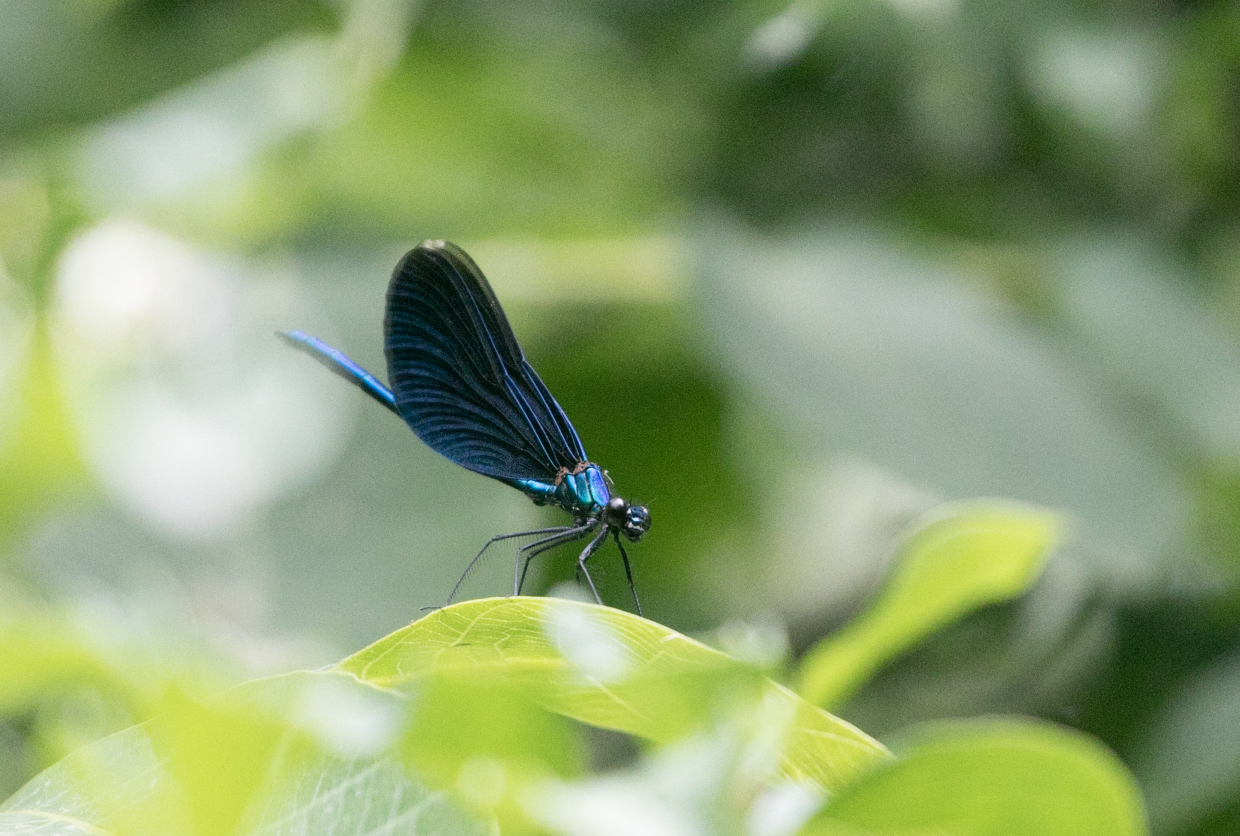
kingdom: Animalia
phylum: Arthropoda
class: Insecta
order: Odonata
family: Calopterygidae
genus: Calopteryx
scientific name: Calopteryx virgo
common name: Beautiful demoiselle
